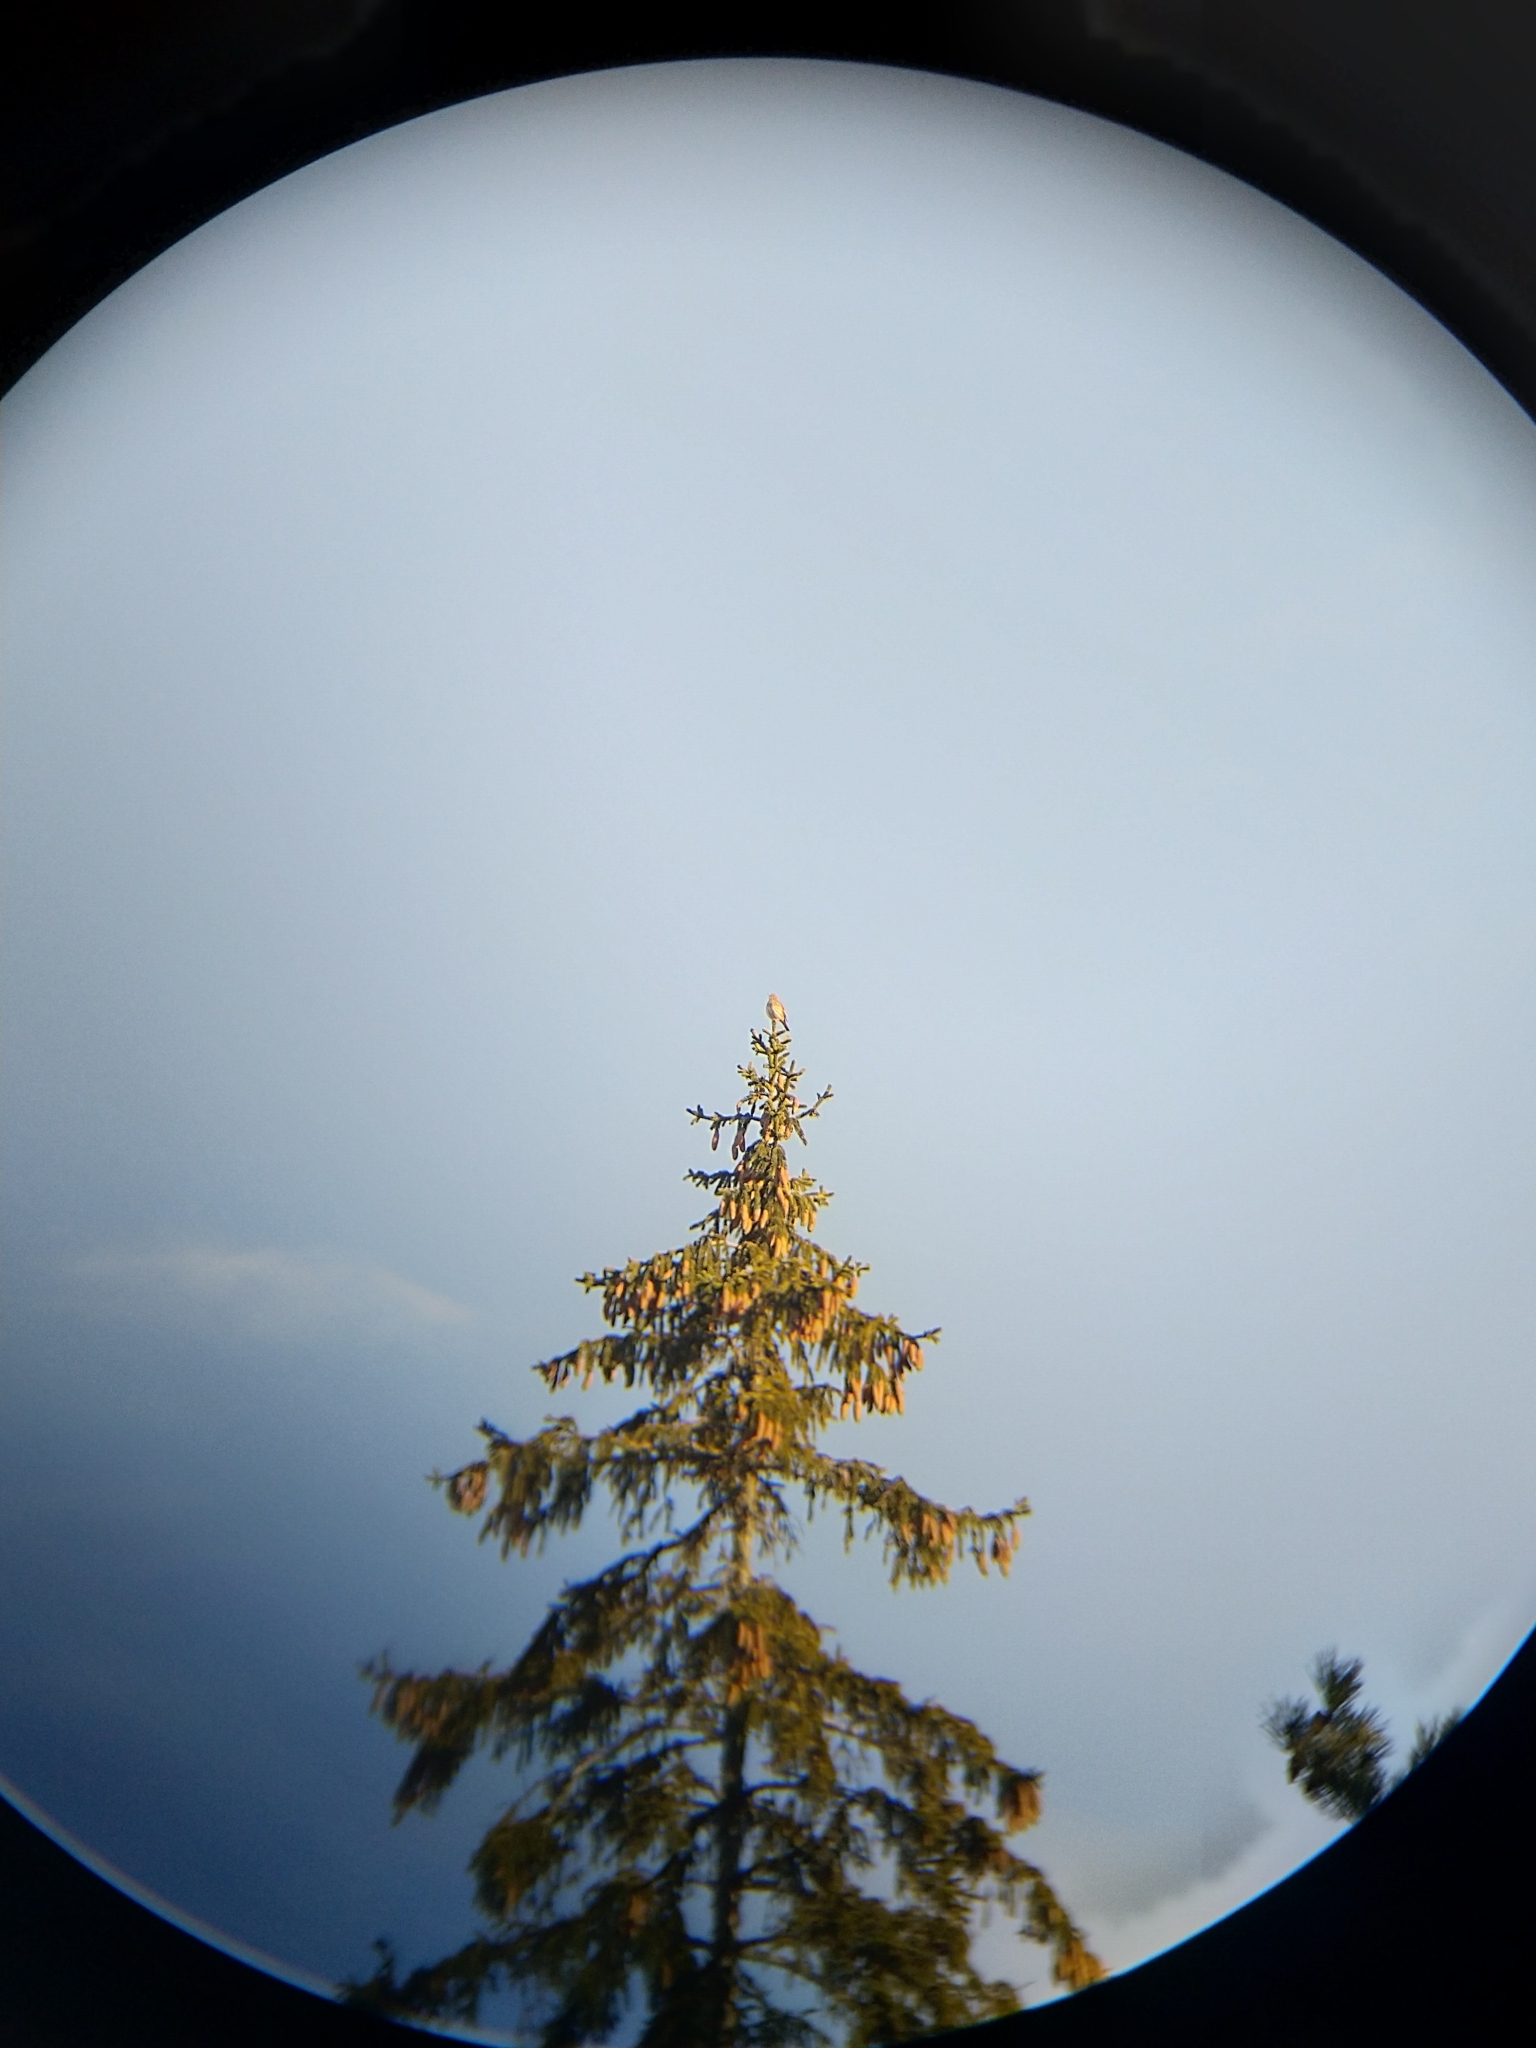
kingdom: Animalia
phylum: Chordata
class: Aves
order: Passeriformes
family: Turdidae
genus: Turdus
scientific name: Turdus philomelos
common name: Song thrush
